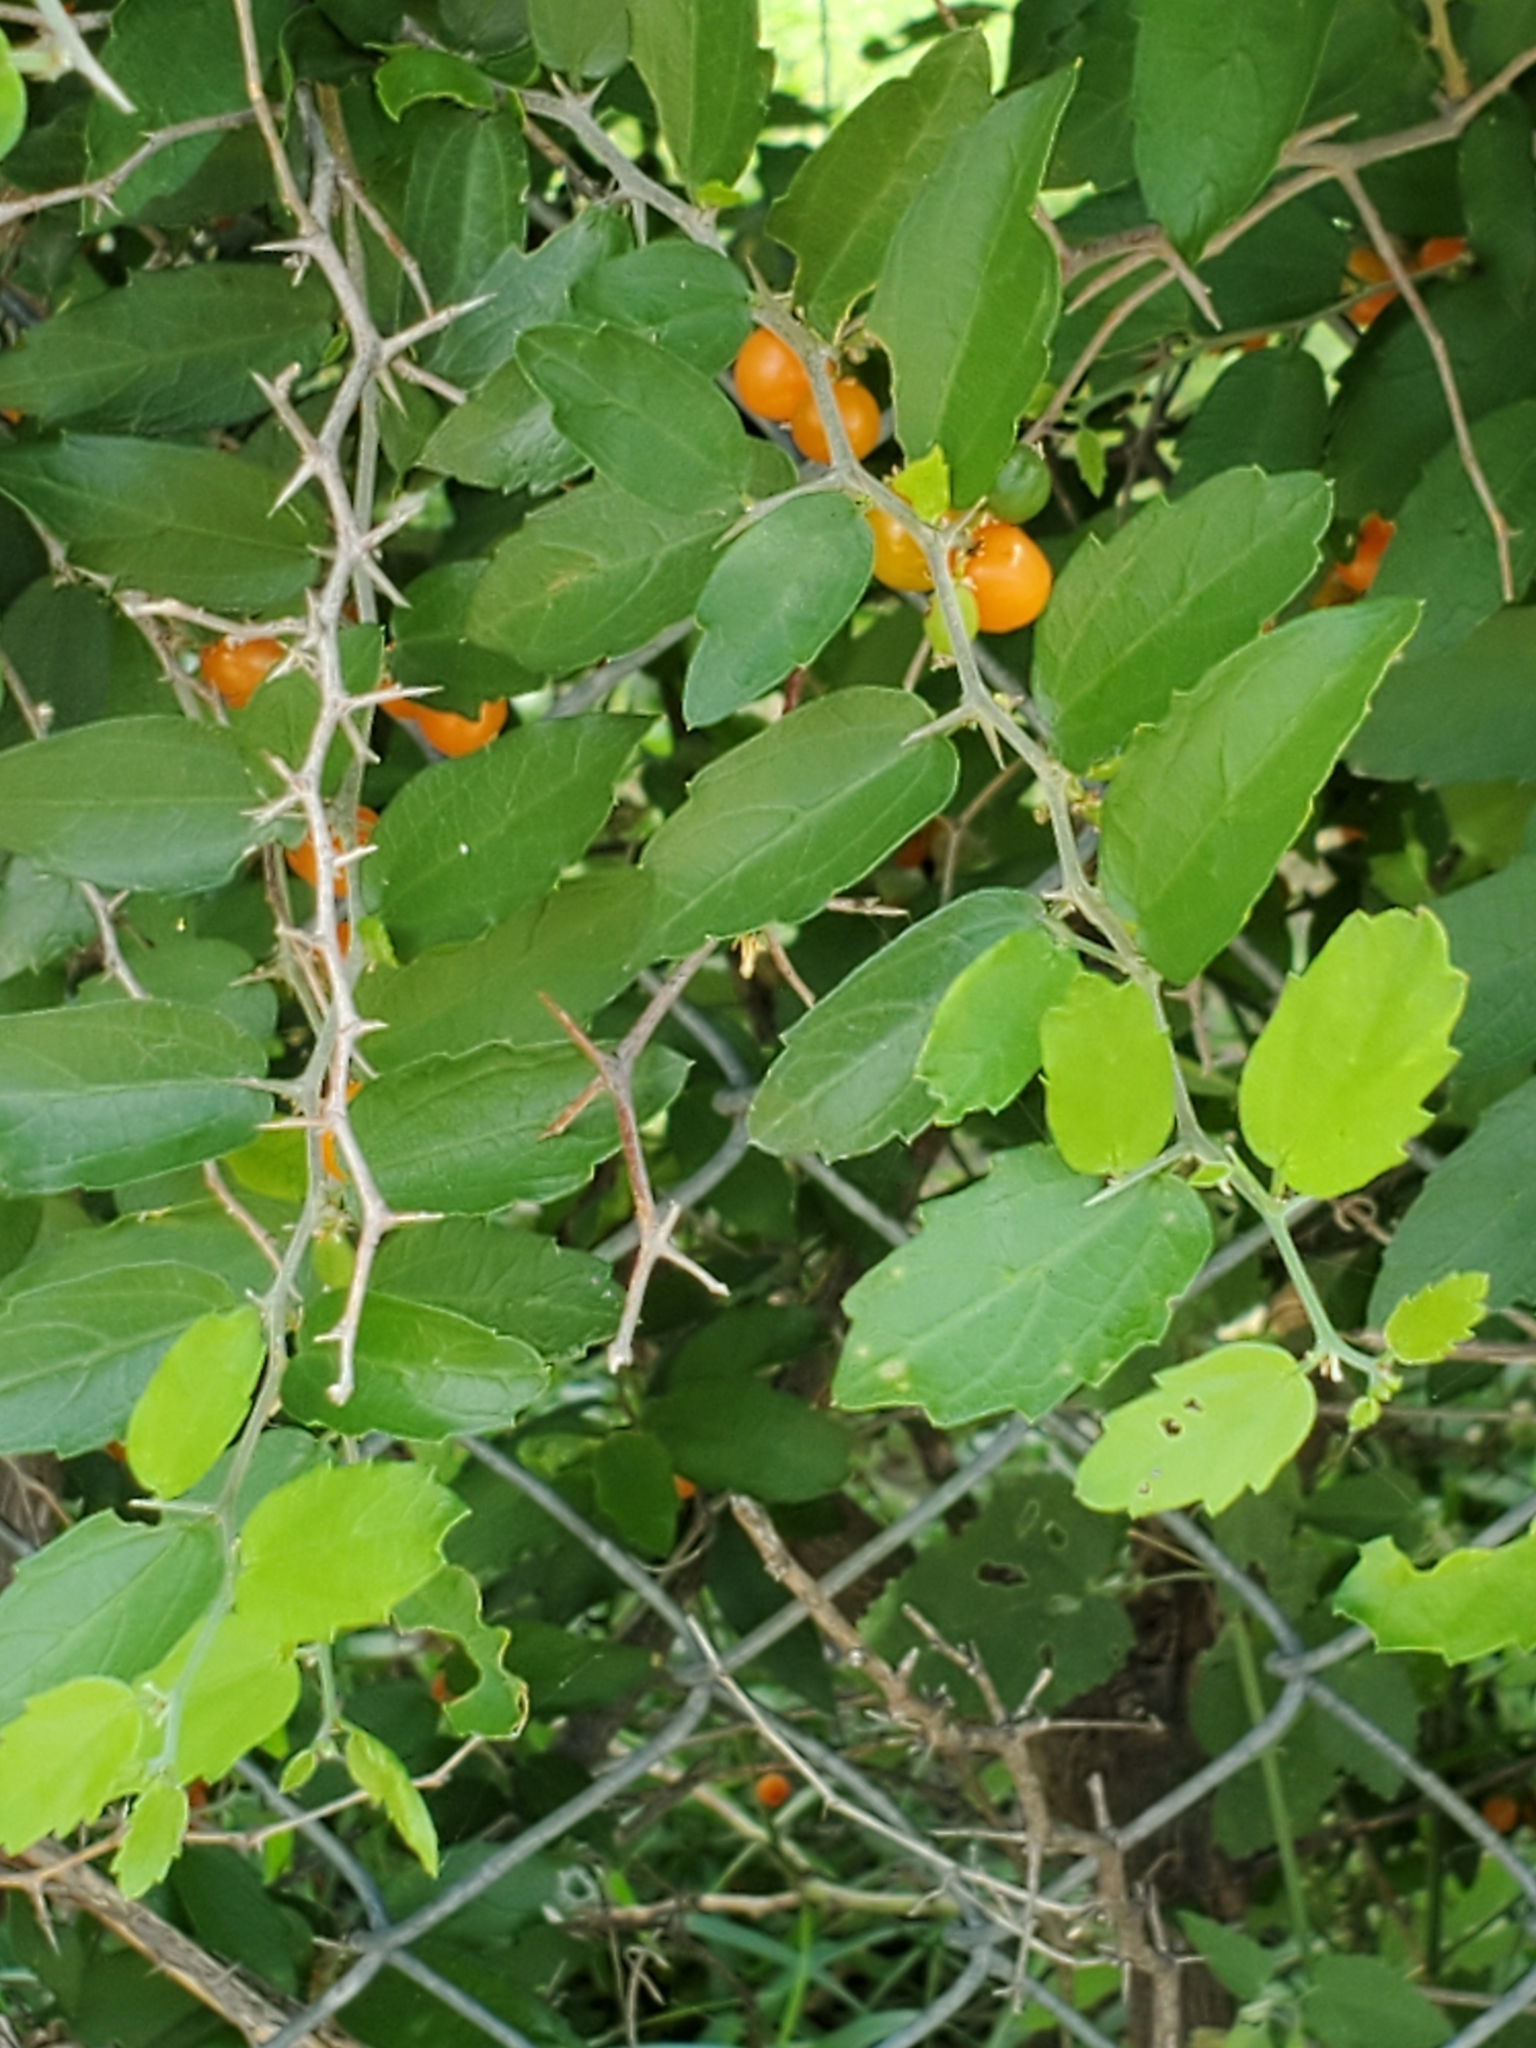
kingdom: Plantae
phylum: Tracheophyta
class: Magnoliopsida
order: Rosales
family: Cannabaceae
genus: Celtis
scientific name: Celtis pallida
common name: Desert hackberry
